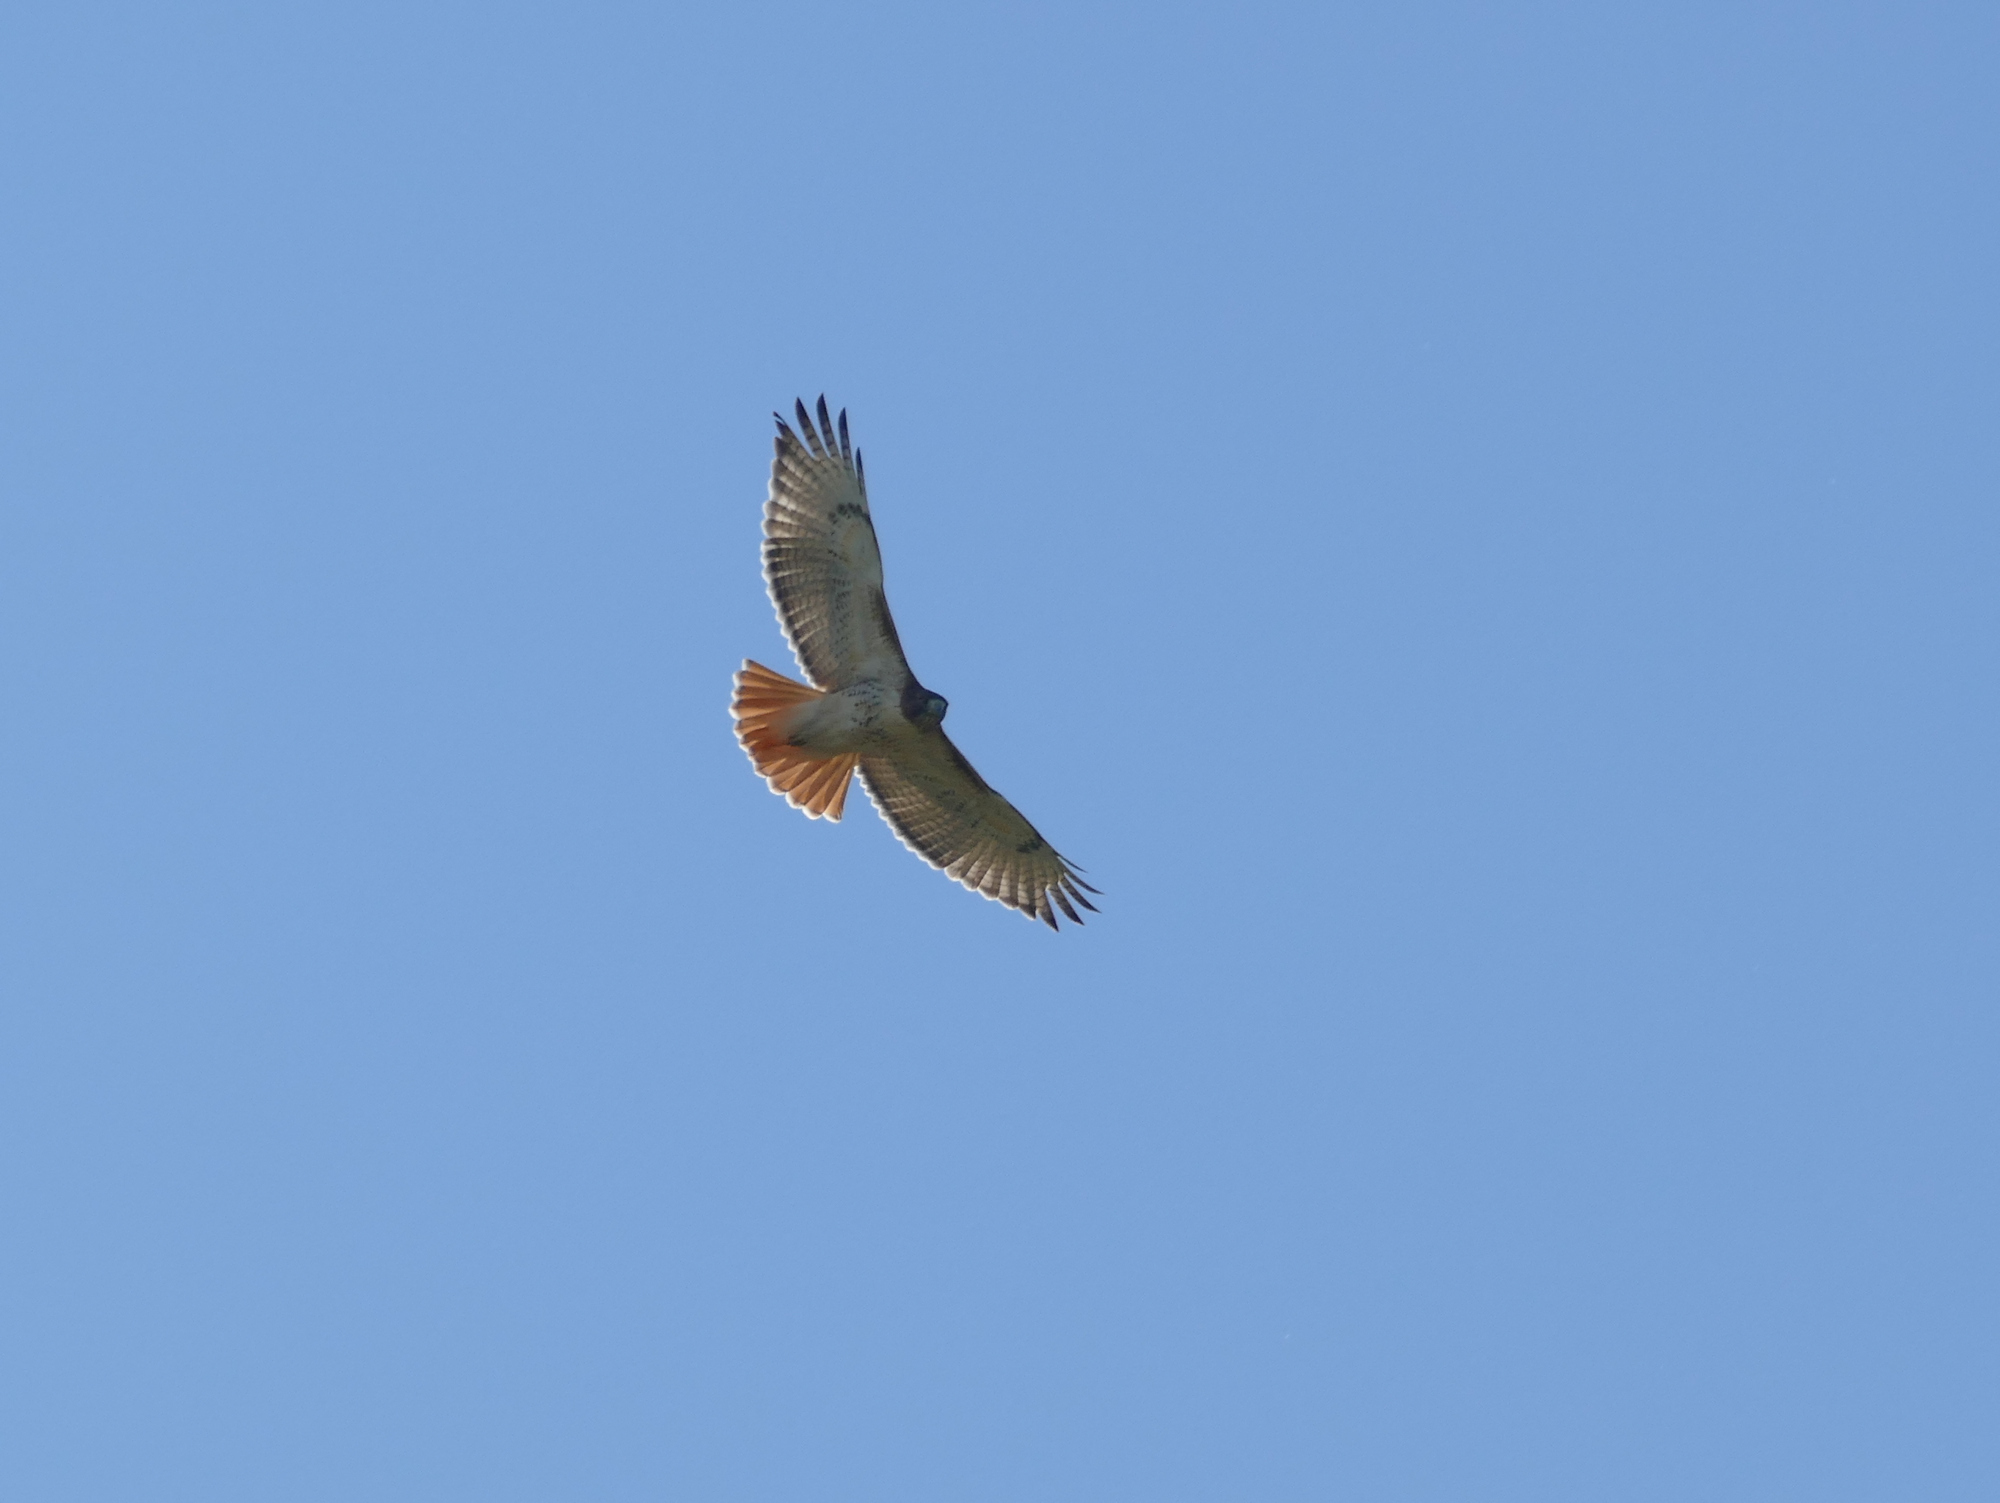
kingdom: Animalia
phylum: Chordata
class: Aves
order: Accipitriformes
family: Accipitridae
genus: Buteo
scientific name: Buteo jamaicensis
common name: Red-tailed hawk
